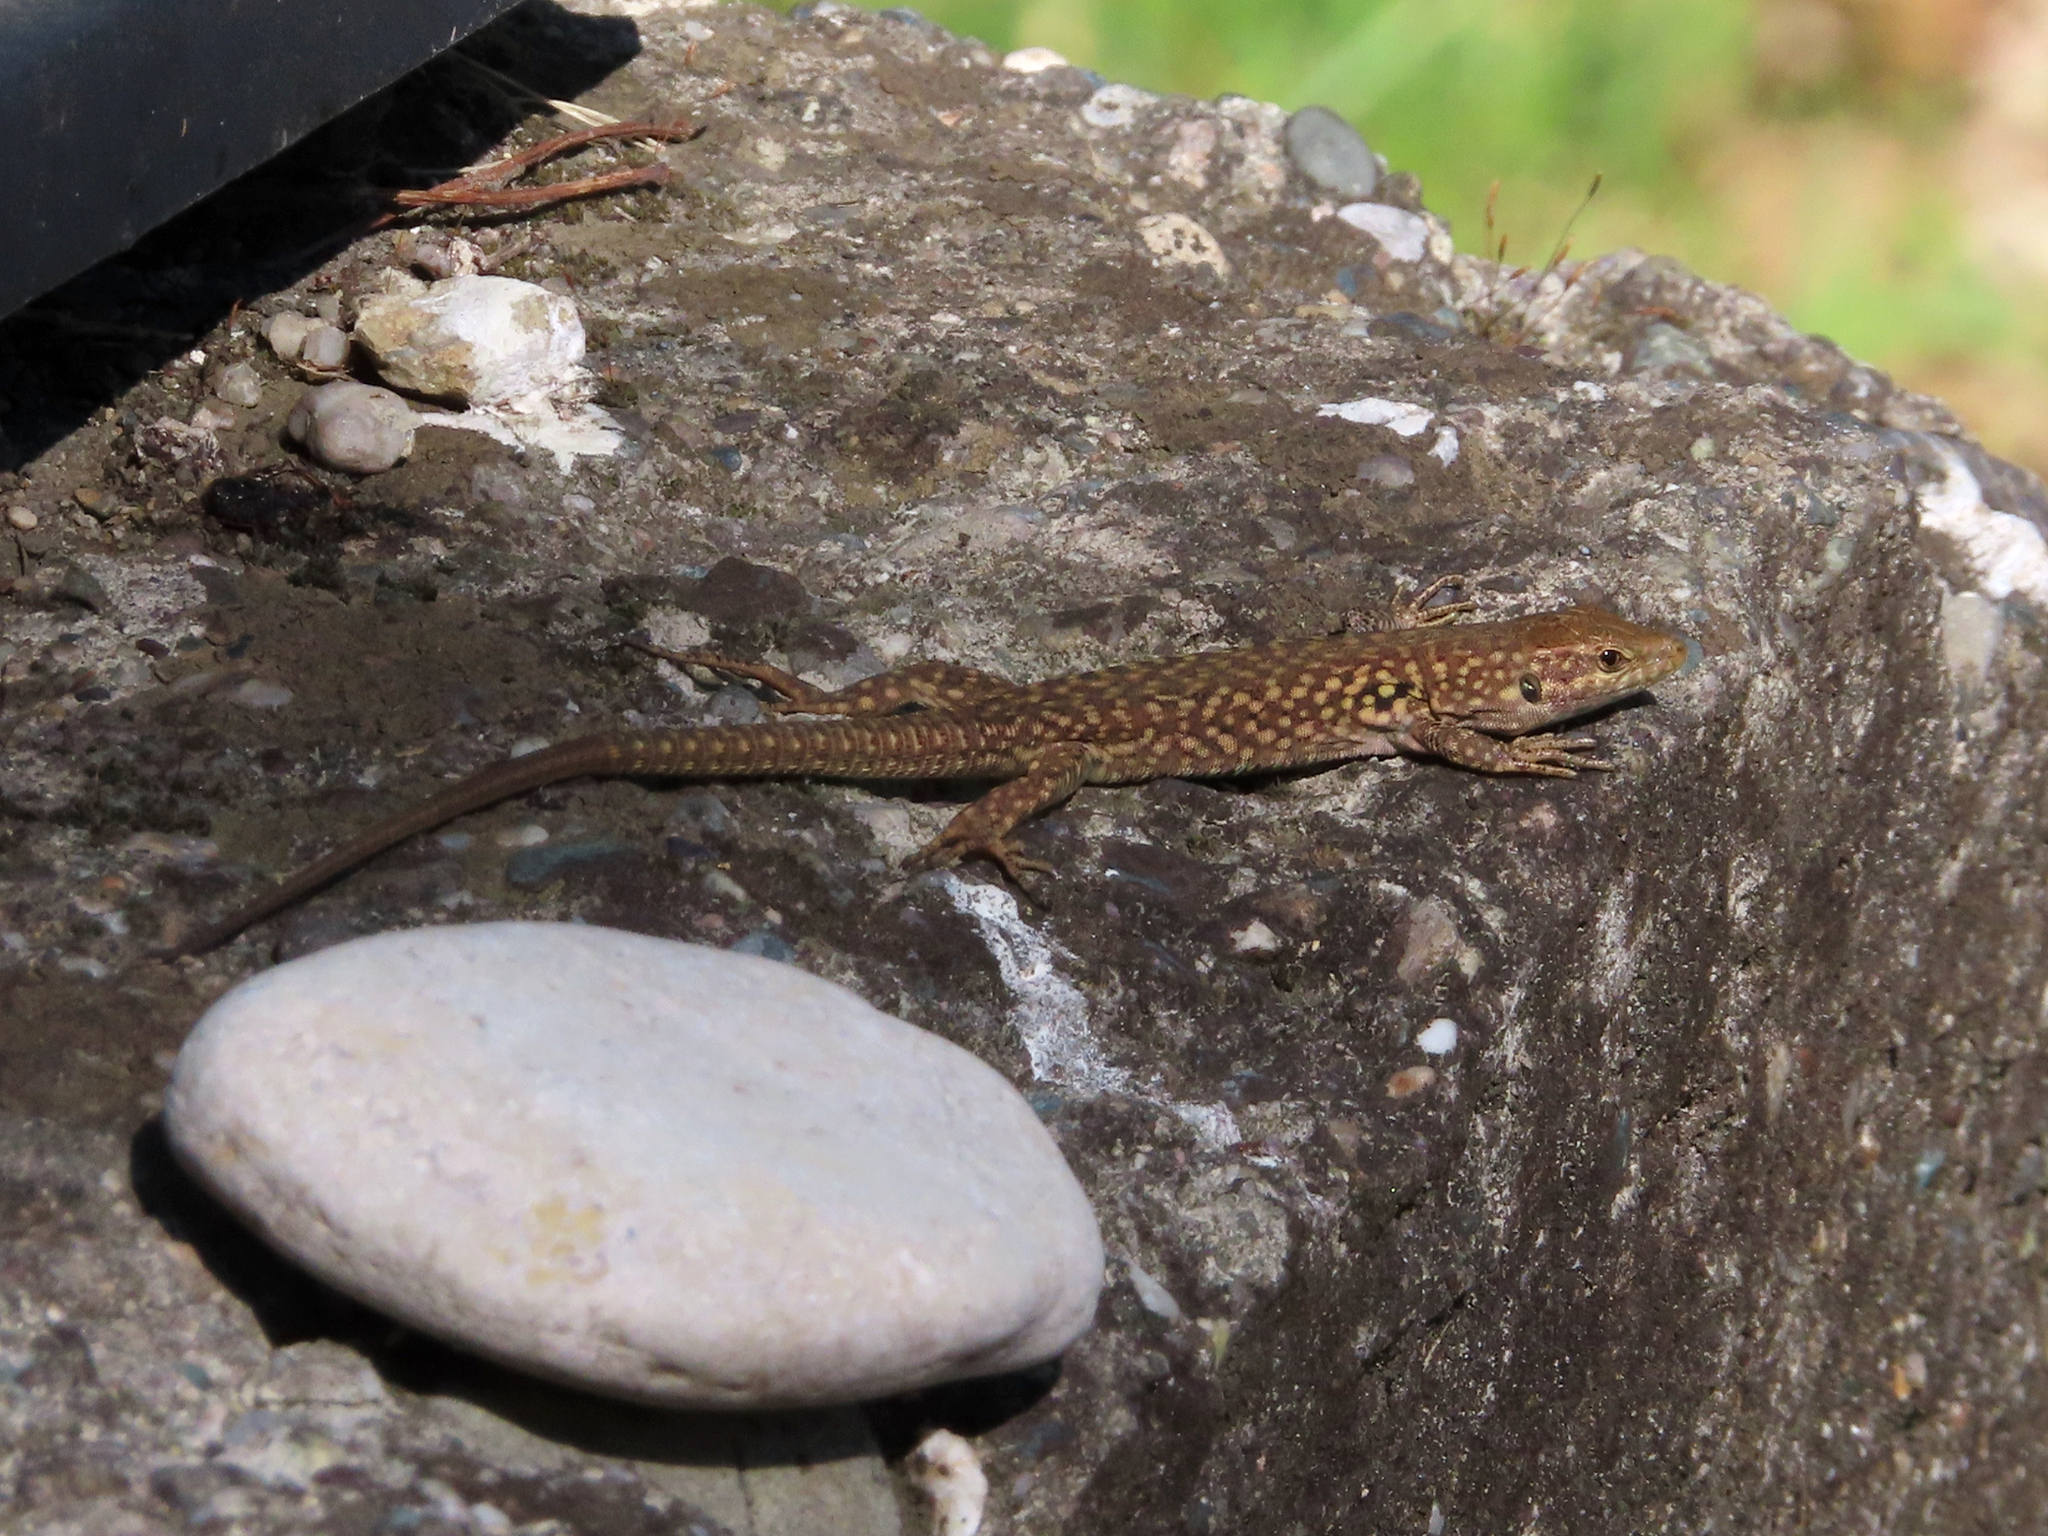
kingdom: Animalia
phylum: Chordata
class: Squamata
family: Lacertidae
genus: Podarcis
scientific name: Podarcis siculus
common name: Italian wall lizard
